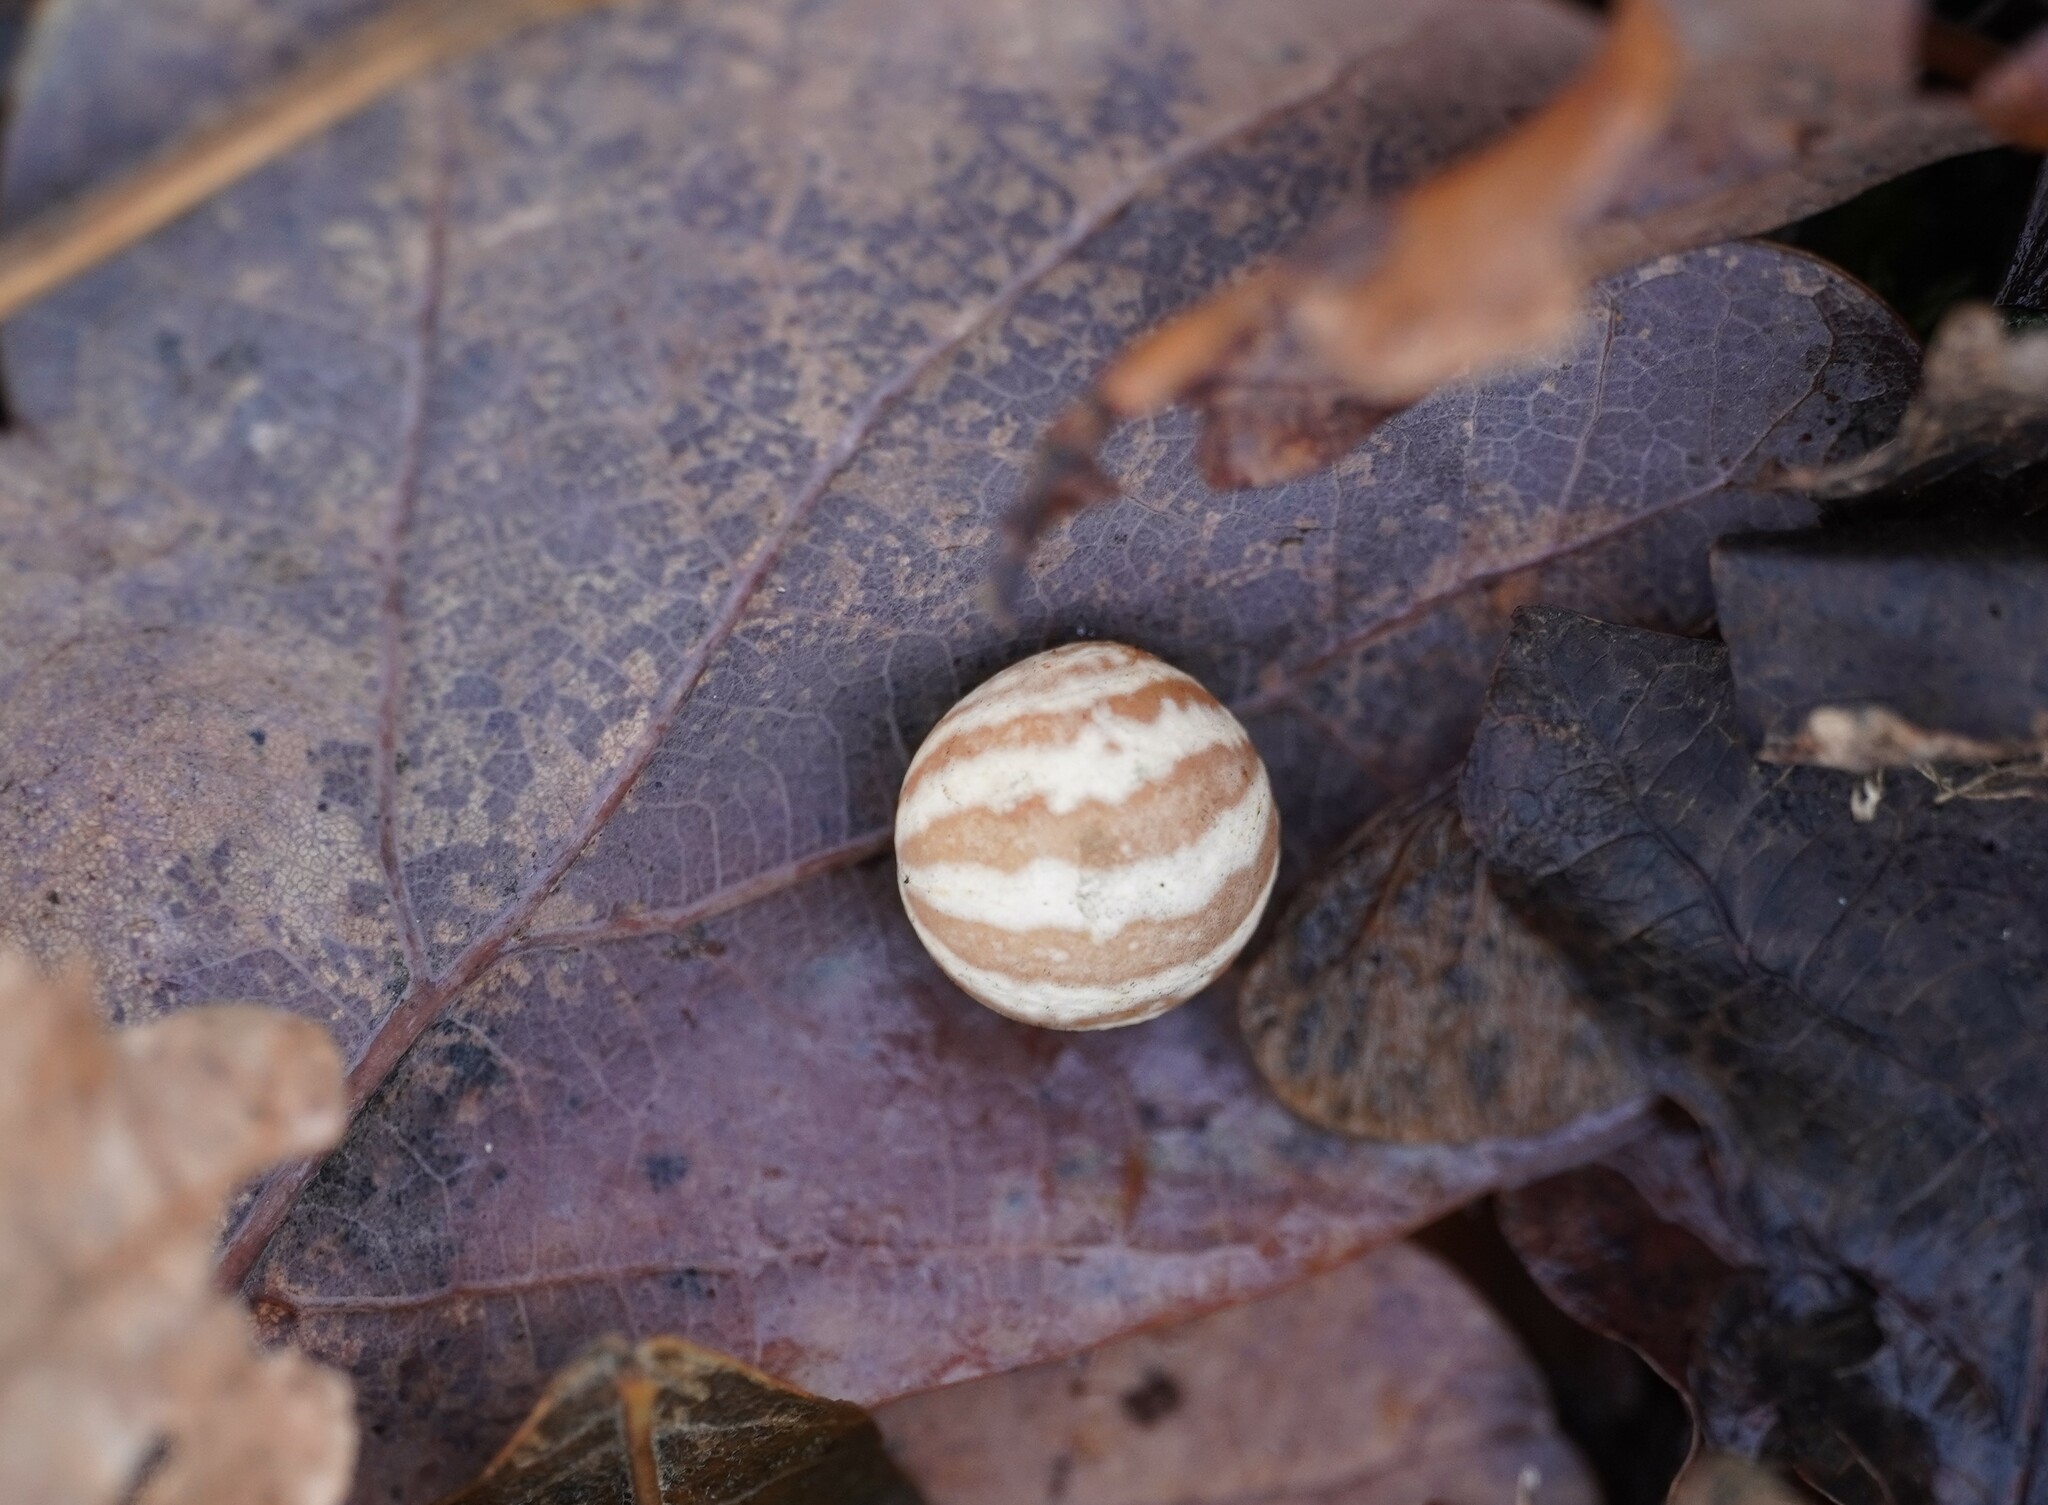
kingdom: Animalia
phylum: Arthropoda
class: Insecta
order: Hymenoptera
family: Cynipidae
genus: Cynips
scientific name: Cynips longiventris
